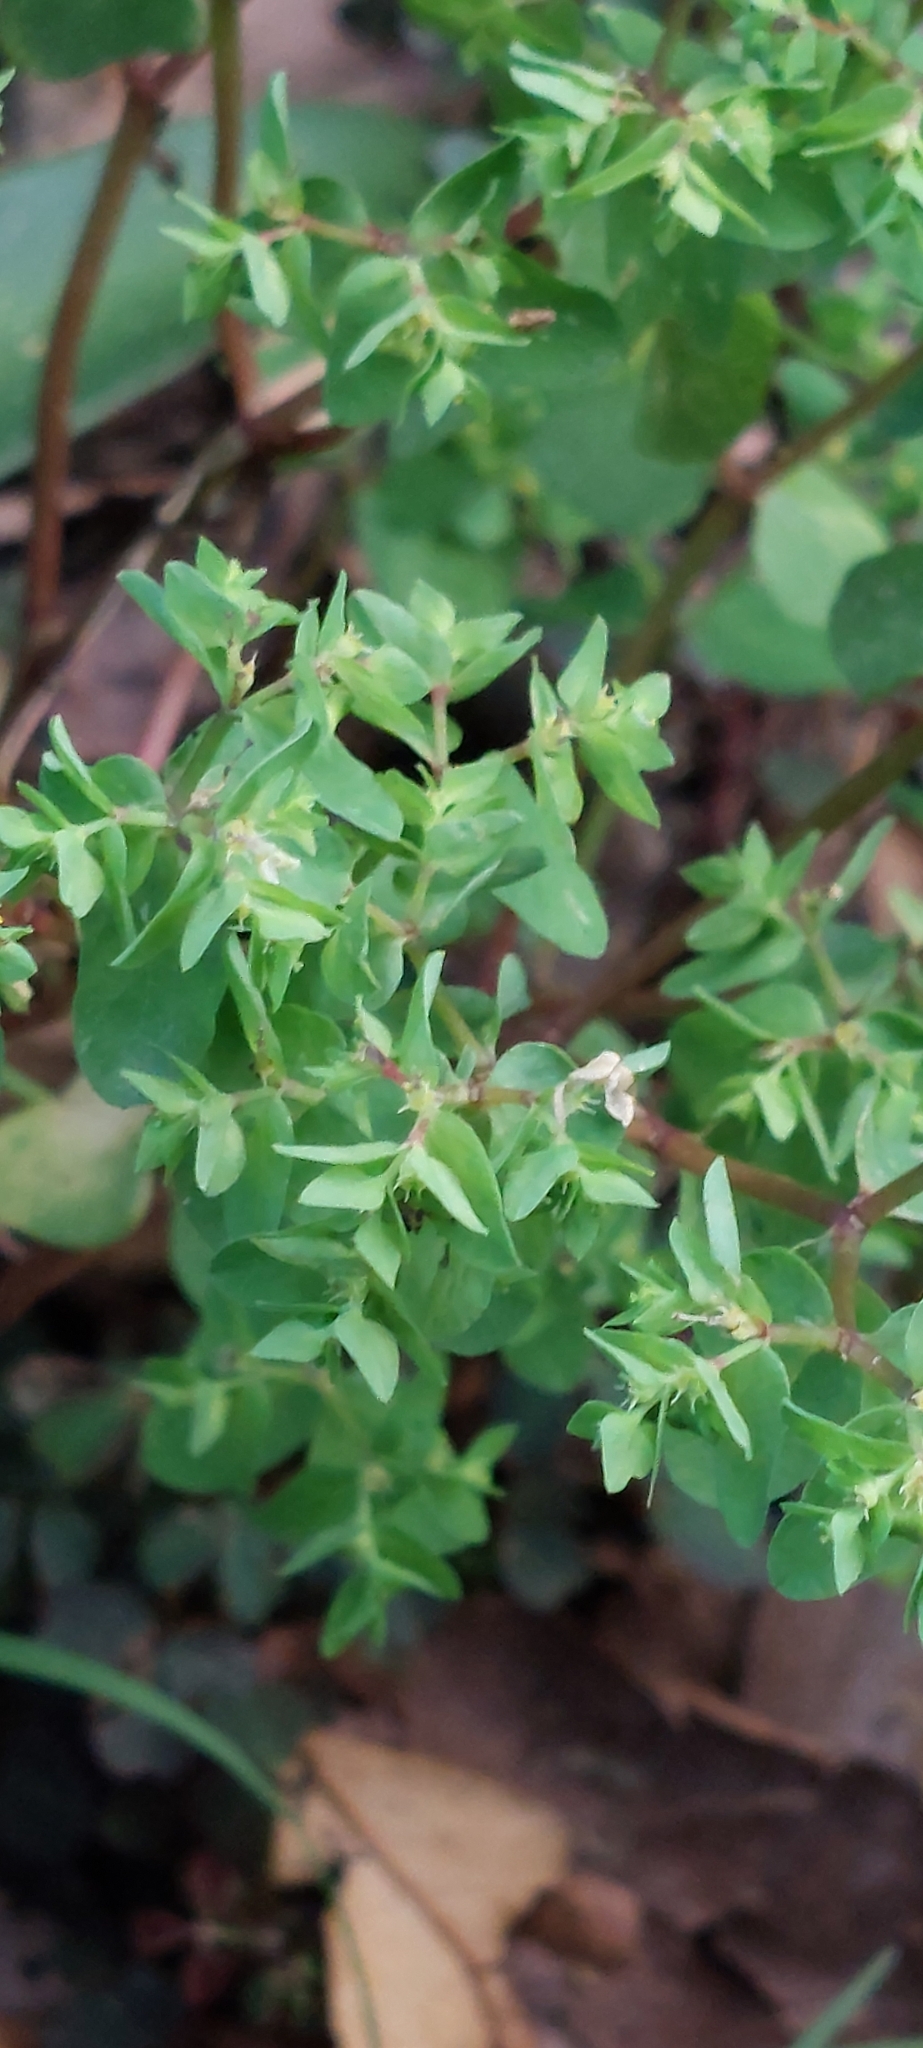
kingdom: Plantae
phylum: Tracheophyta
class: Magnoliopsida
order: Malpighiales
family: Euphorbiaceae
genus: Euphorbia
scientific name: Euphorbia peplus
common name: Petty spurge
